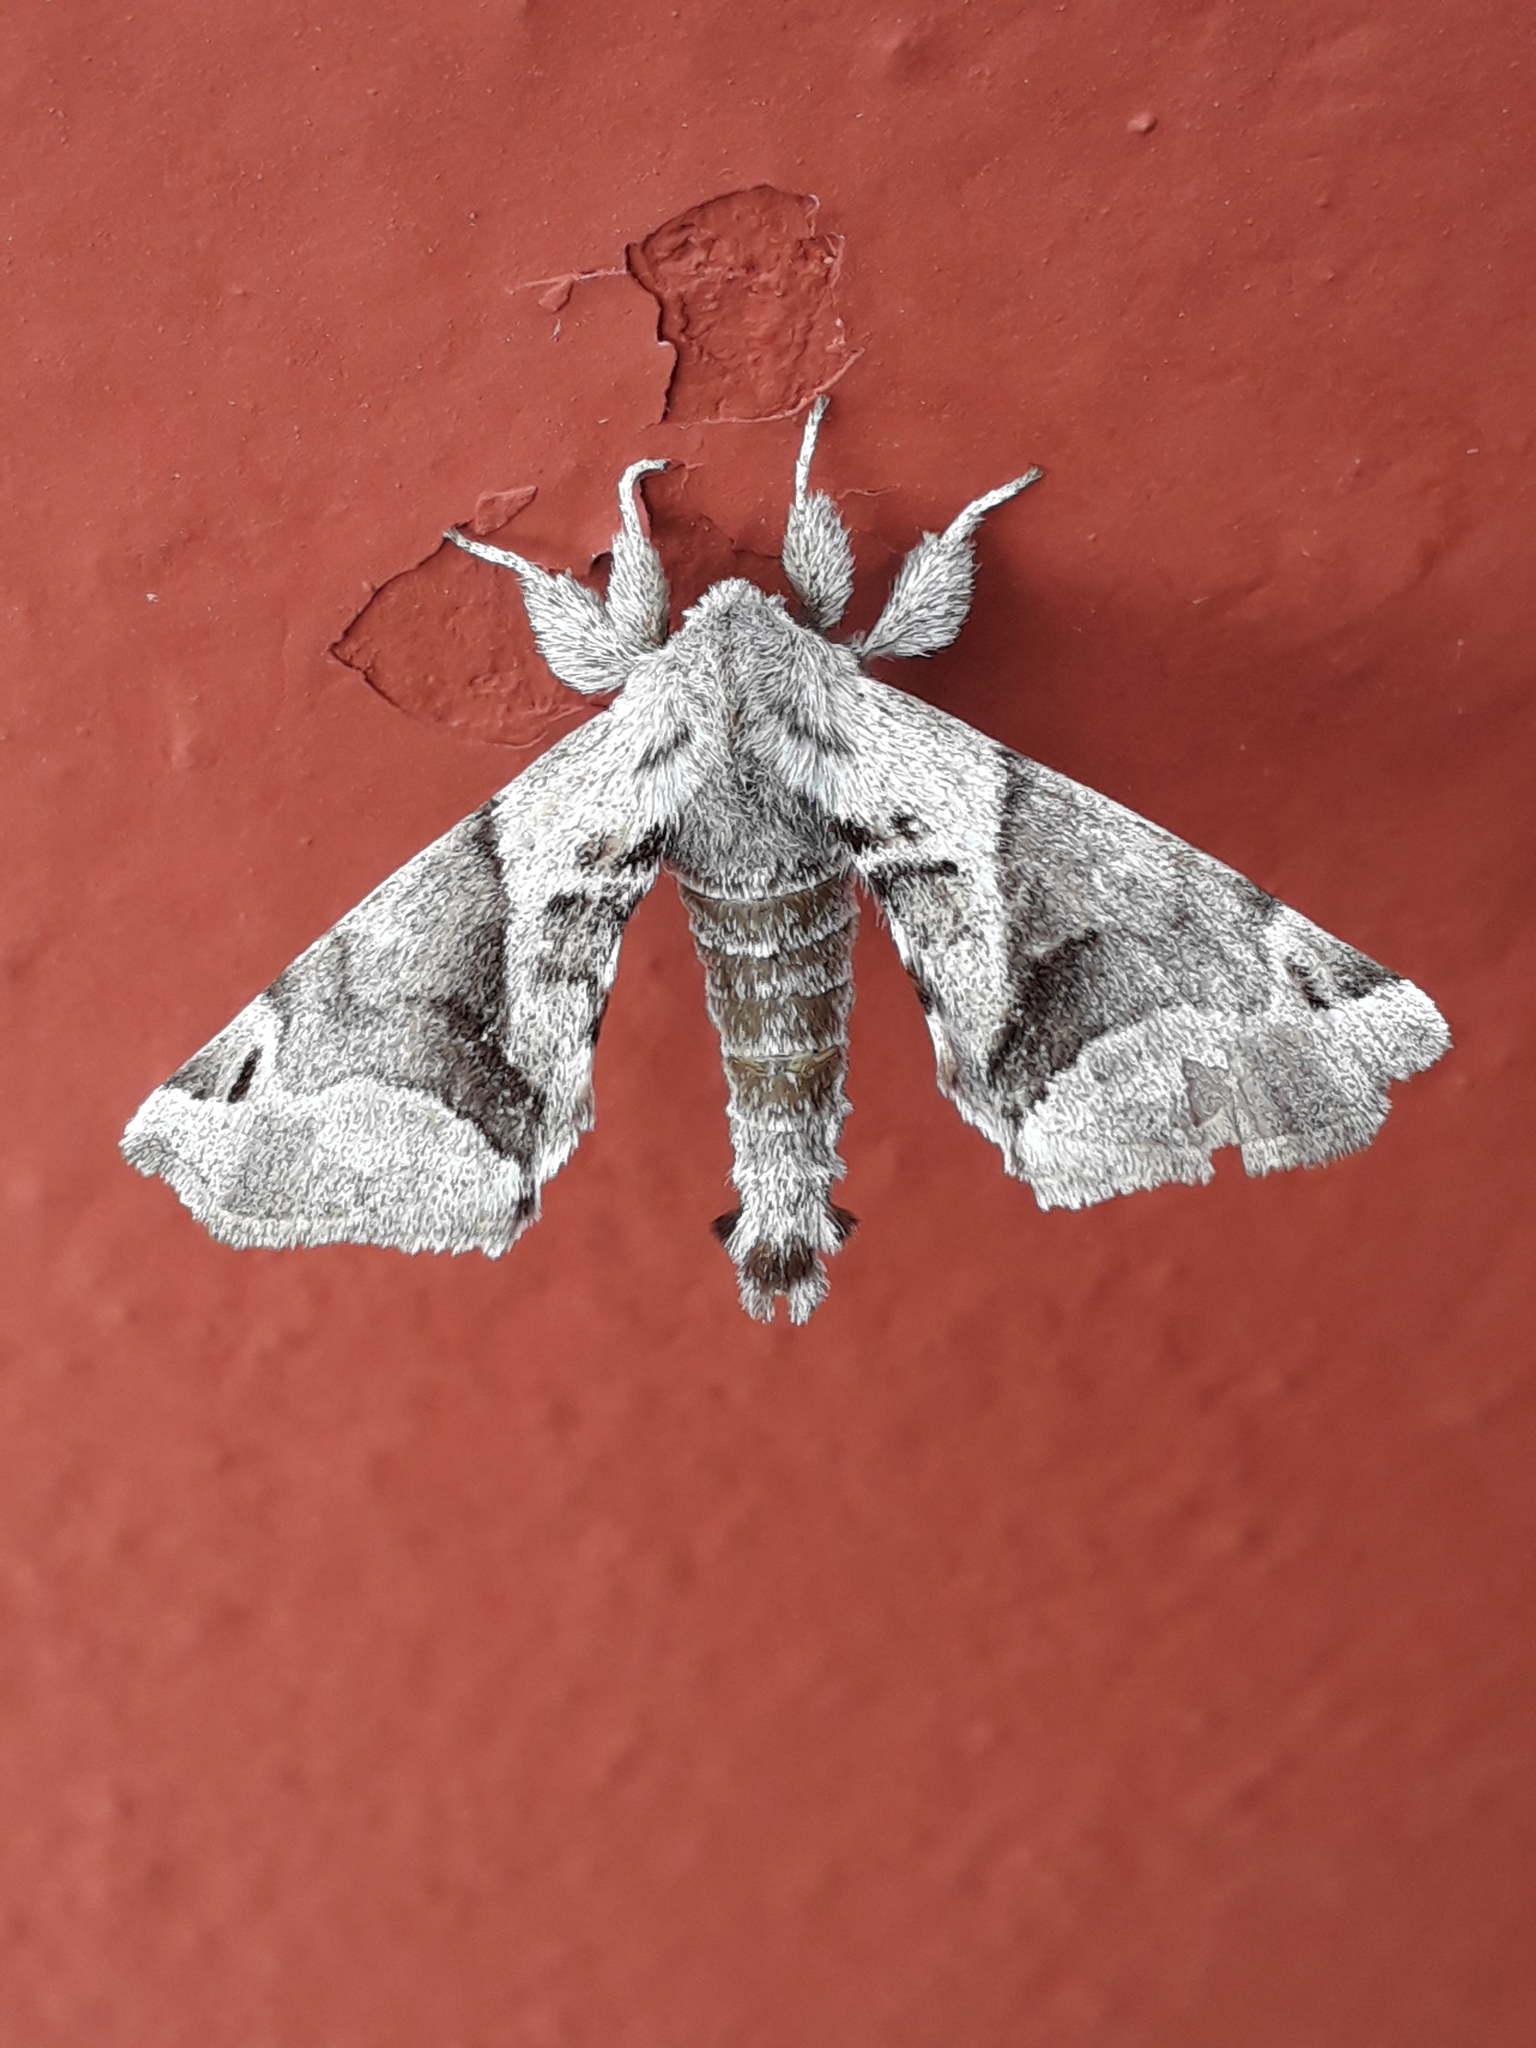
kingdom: Animalia
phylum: Arthropoda
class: Insecta
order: Lepidoptera
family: Apatelodidae
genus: Hygrochroa
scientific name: Hygrochroa Apatelodes pudefacta
